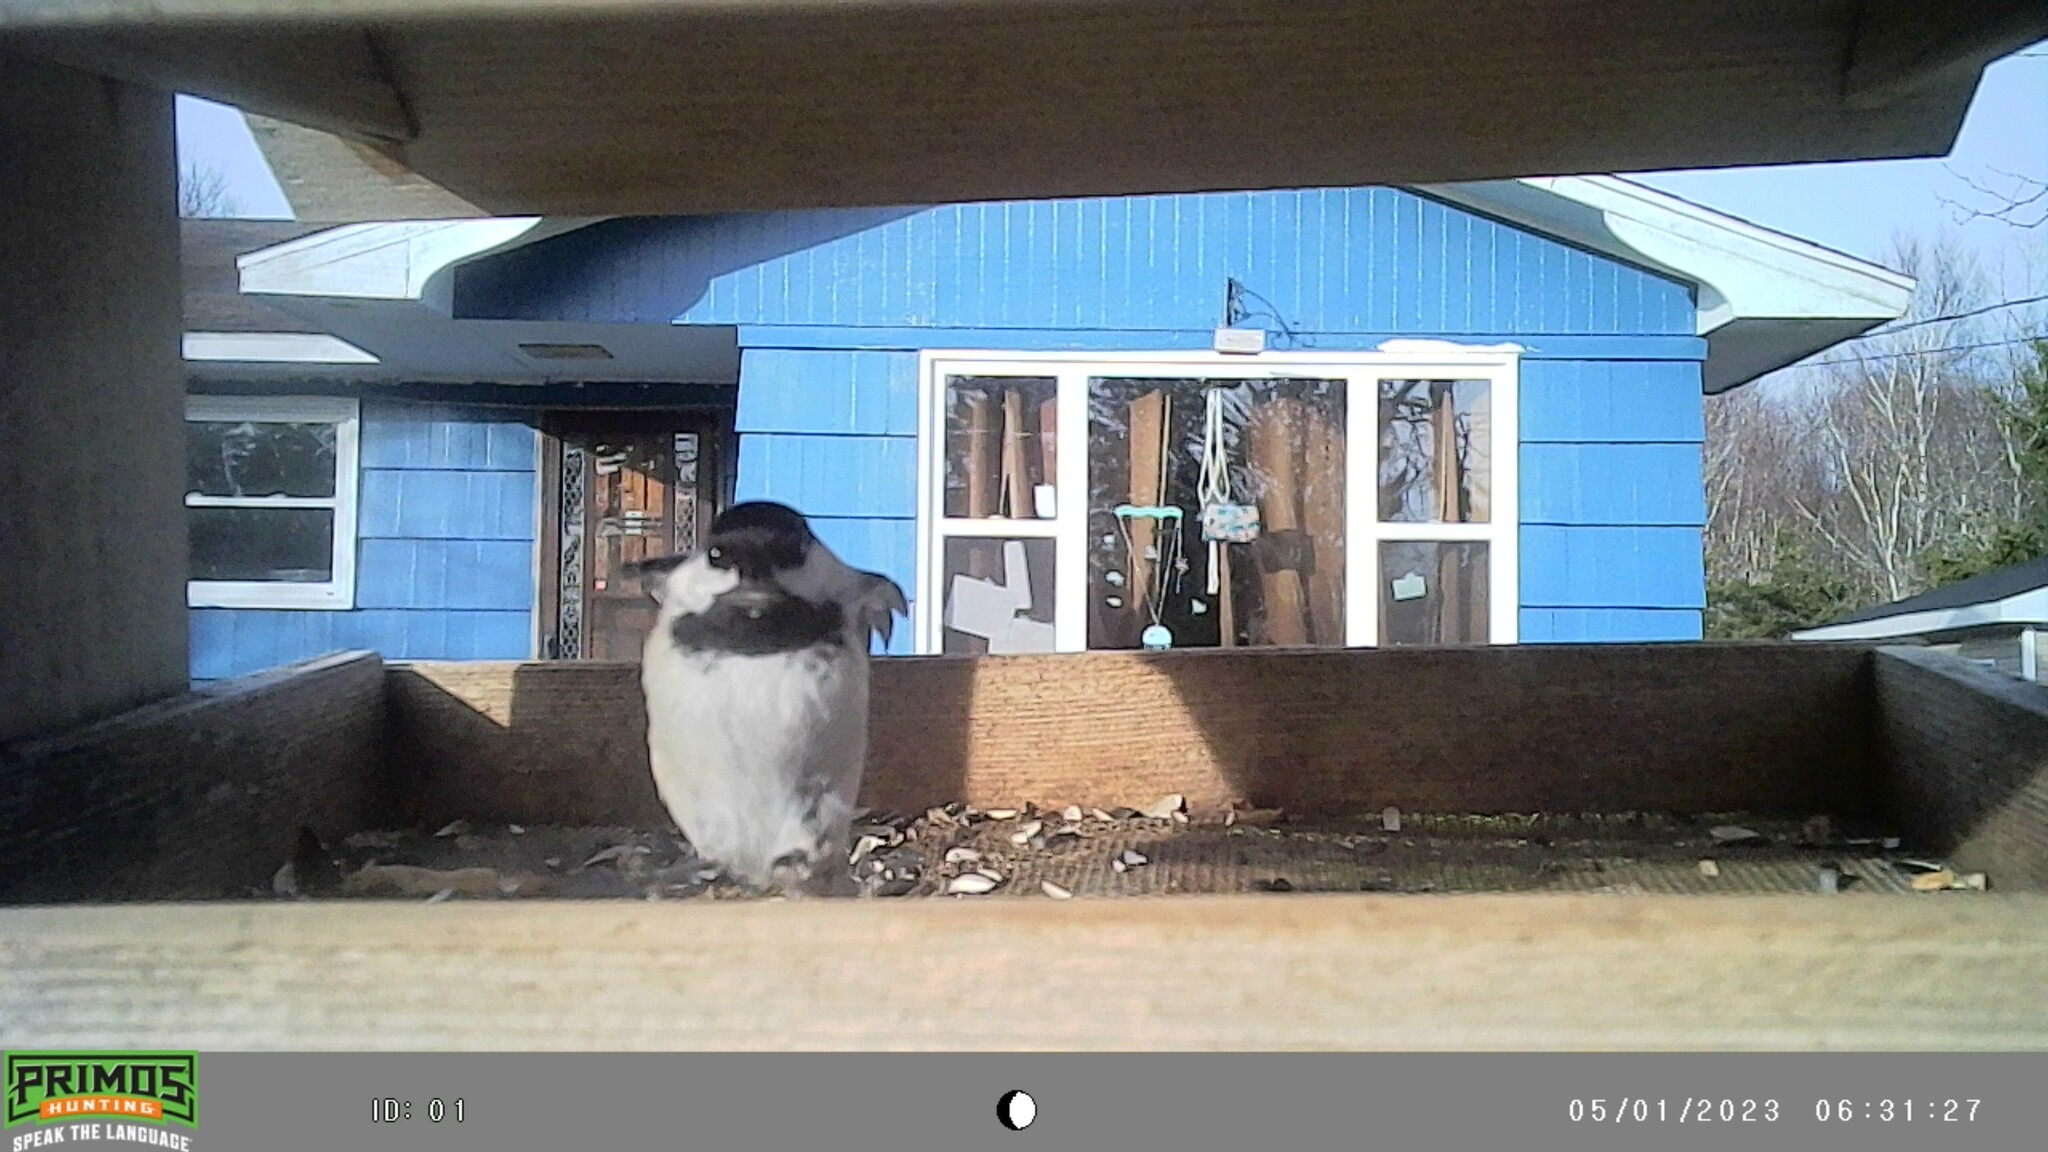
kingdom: Animalia
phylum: Chordata
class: Aves
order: Passeriformes
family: Paridae
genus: Poecile
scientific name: Poecile atricapillus
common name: Black-capped chickadee
